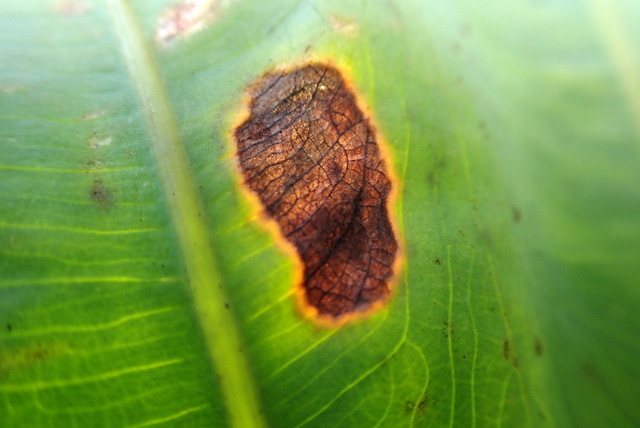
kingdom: Plantae
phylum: Tracheophyta
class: Liliopsida
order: Alismatales
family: Araceae
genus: Colocasia
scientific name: Colocasia esculenta
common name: Taro
